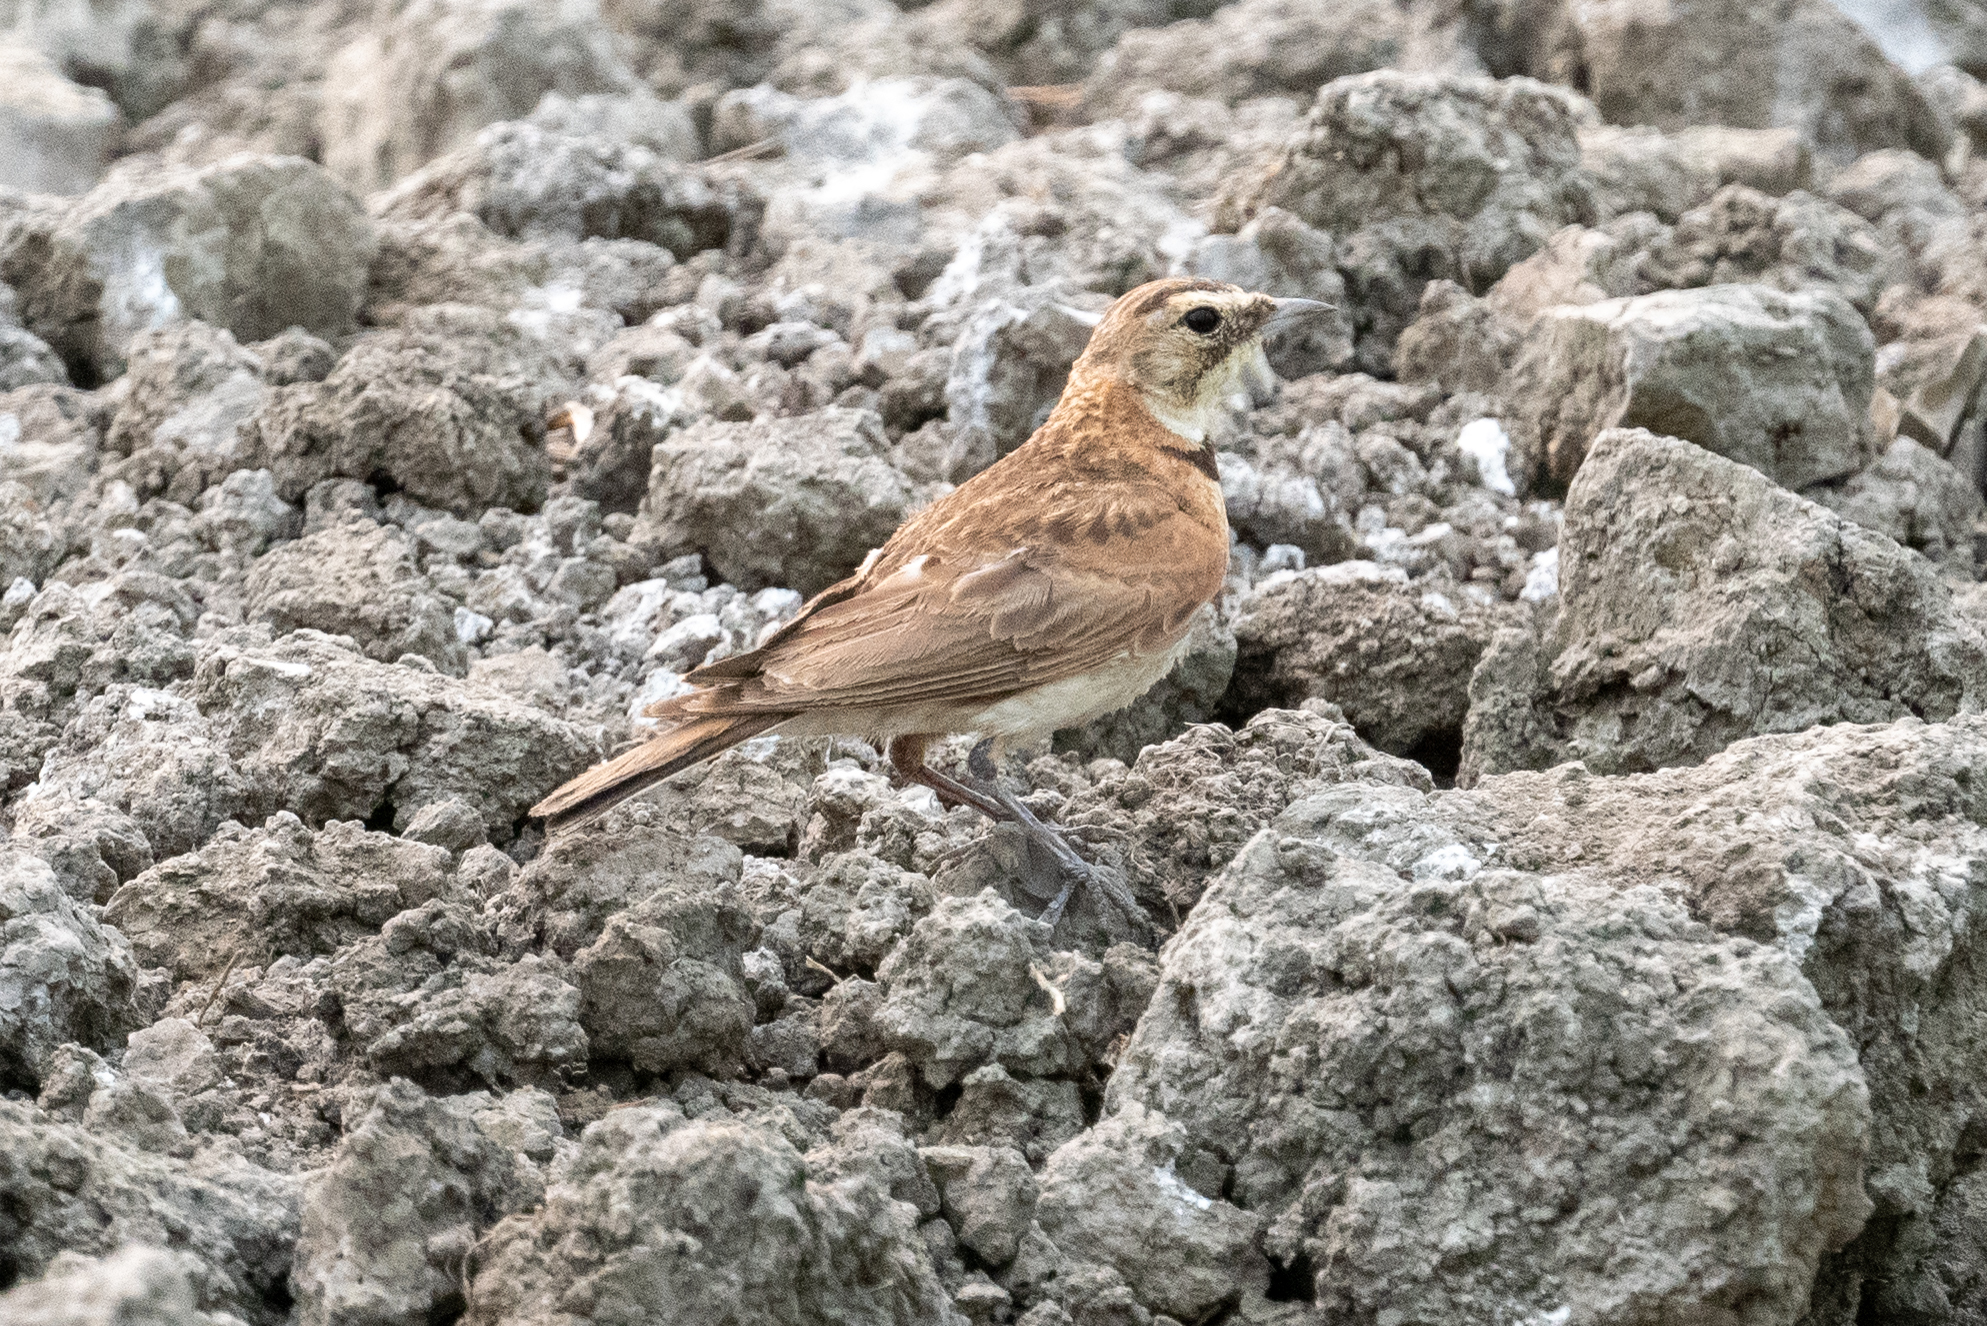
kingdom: Animalia
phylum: Chordata
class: Aves
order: Passeriformes
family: Alaudidae
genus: Eremophila
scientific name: Eremophila alpestris
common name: Horned lark
